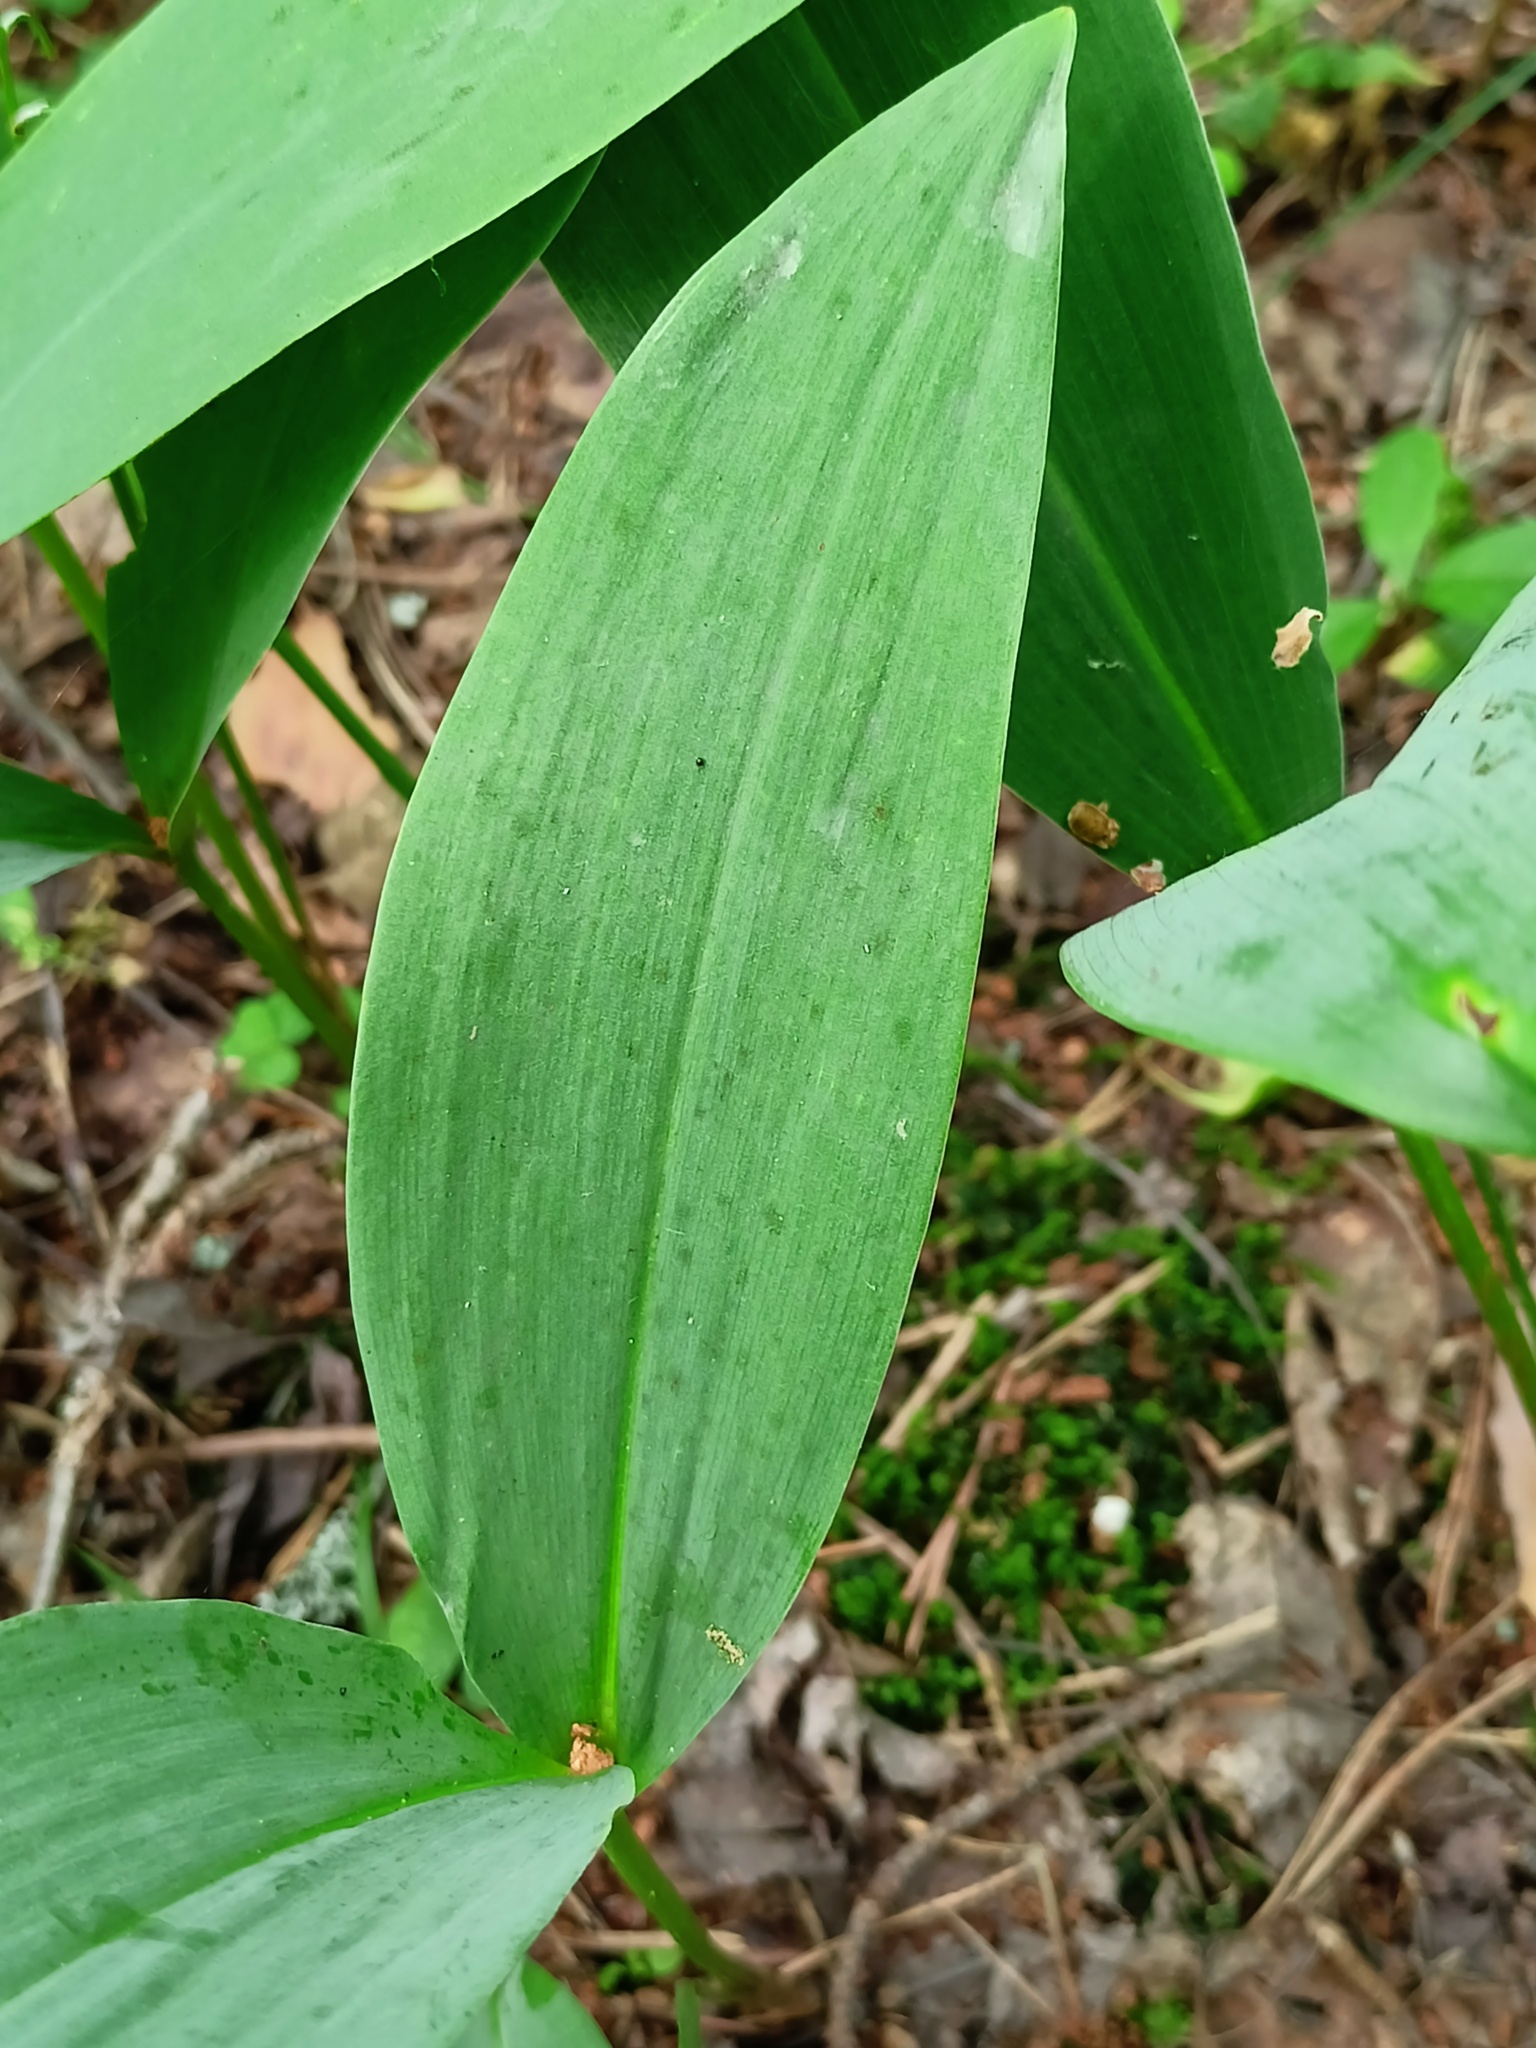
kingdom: Plantae
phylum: Tracheophyta
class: Liliopsida
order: Asparagales
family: Asparagaceae
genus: Convallaria
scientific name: Convallaria majalis
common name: Lily-of-the-valley
